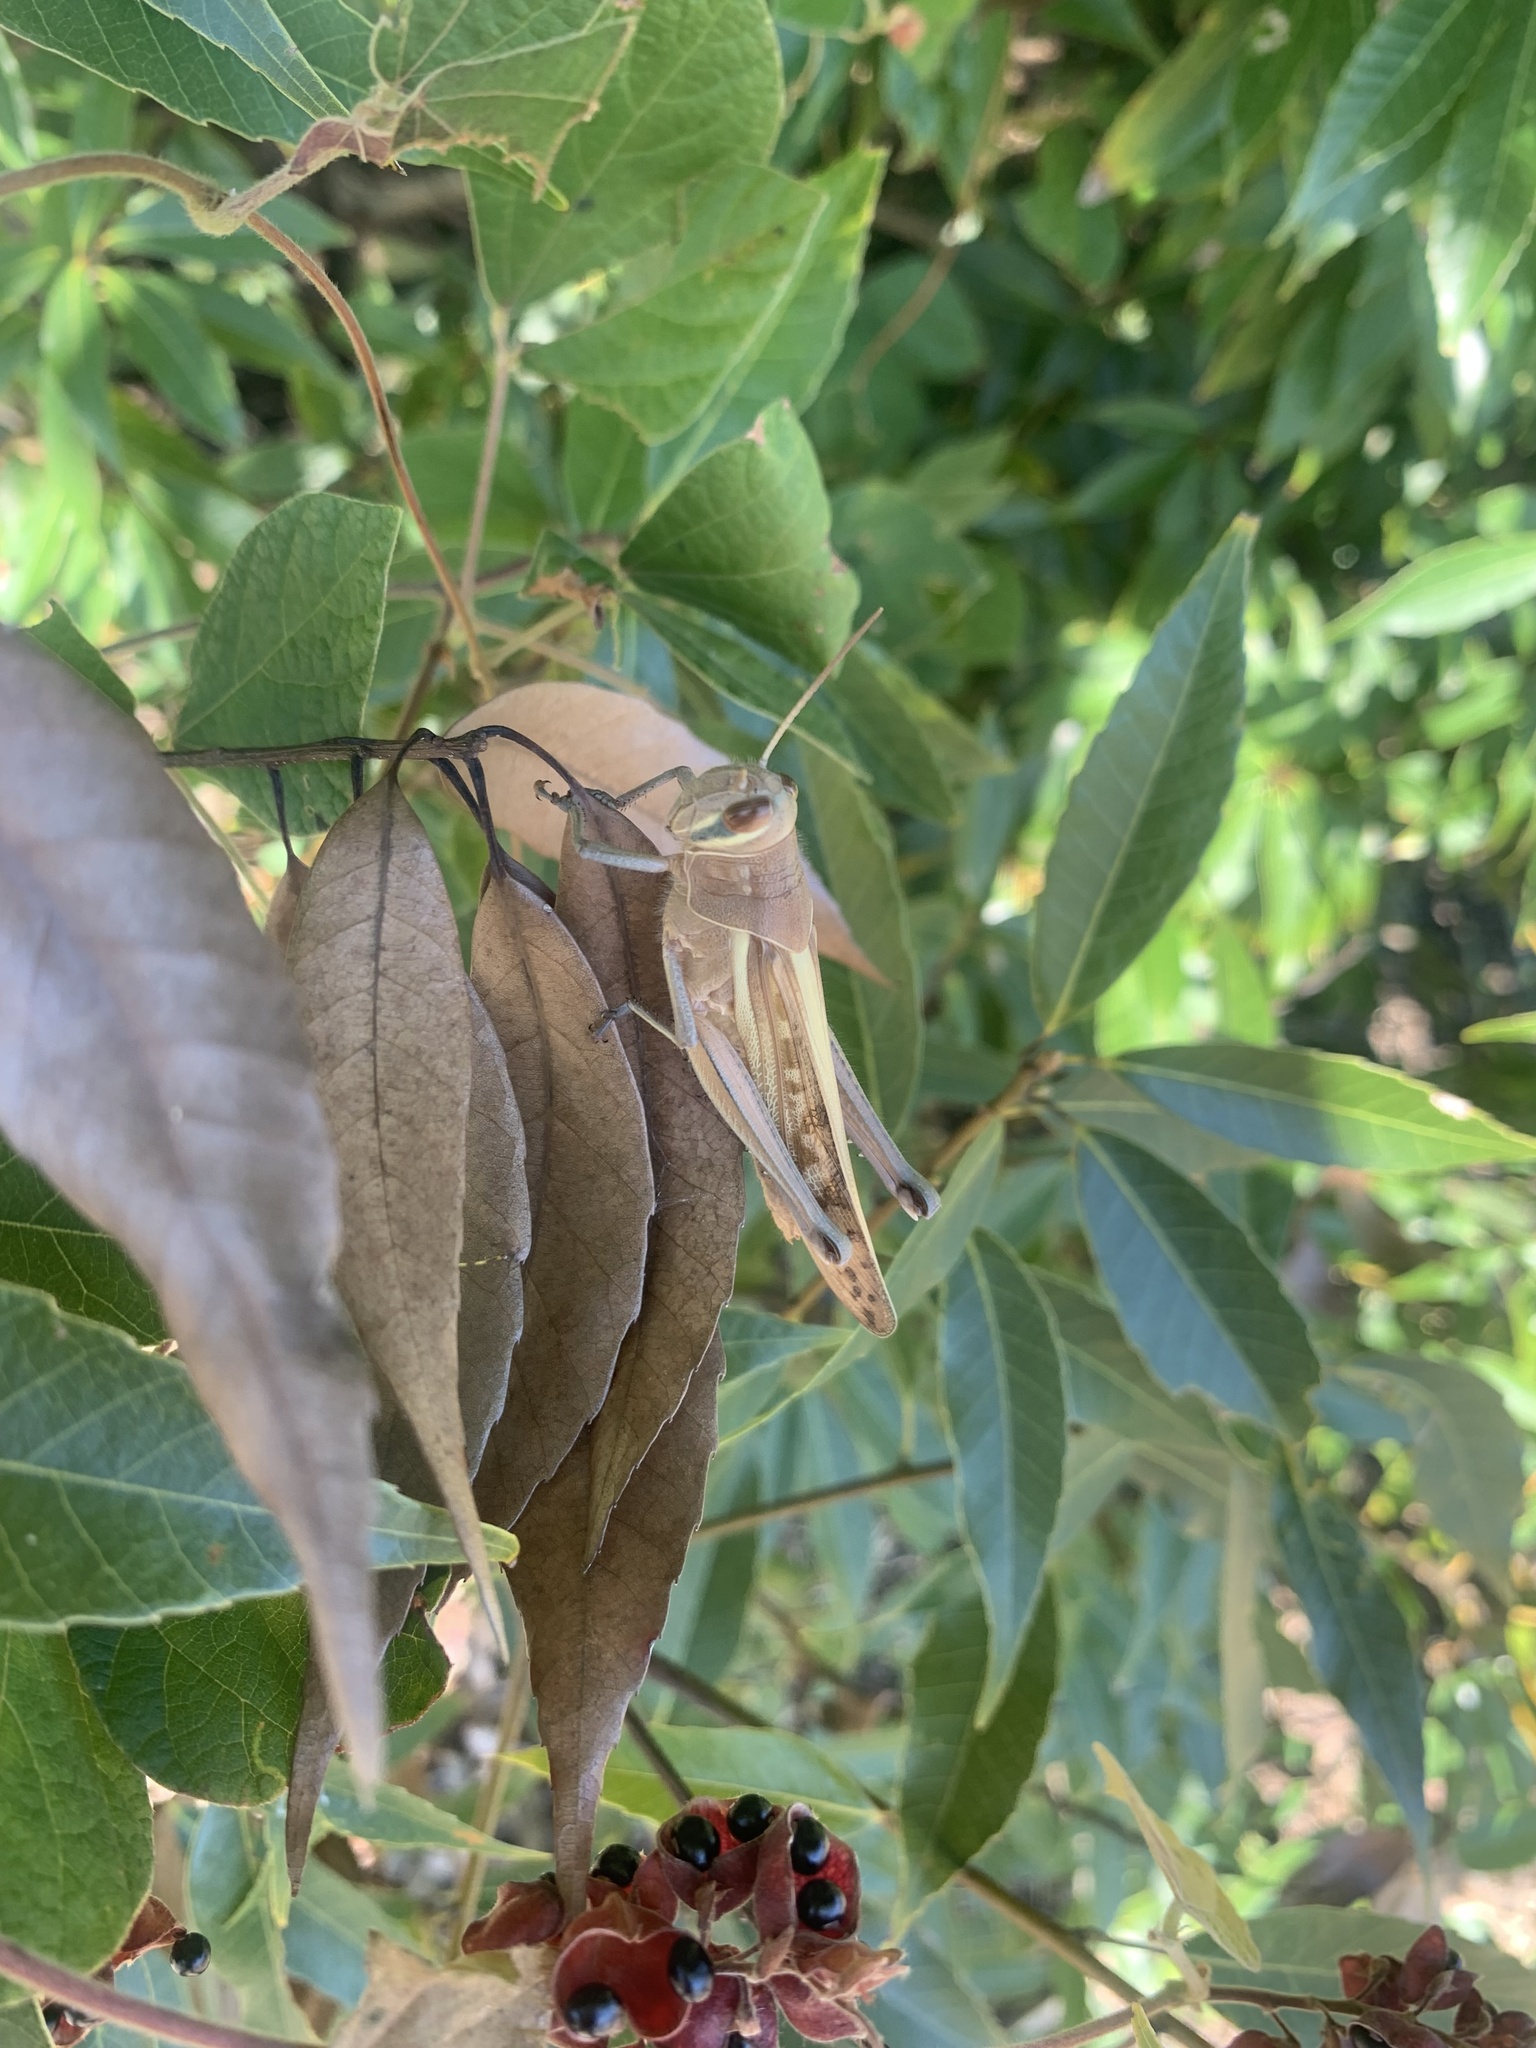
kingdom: Animalia
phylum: Arthropoda
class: Insecta
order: Orthoptera
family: Acrididae
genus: Patanga
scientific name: Patanga japonica
